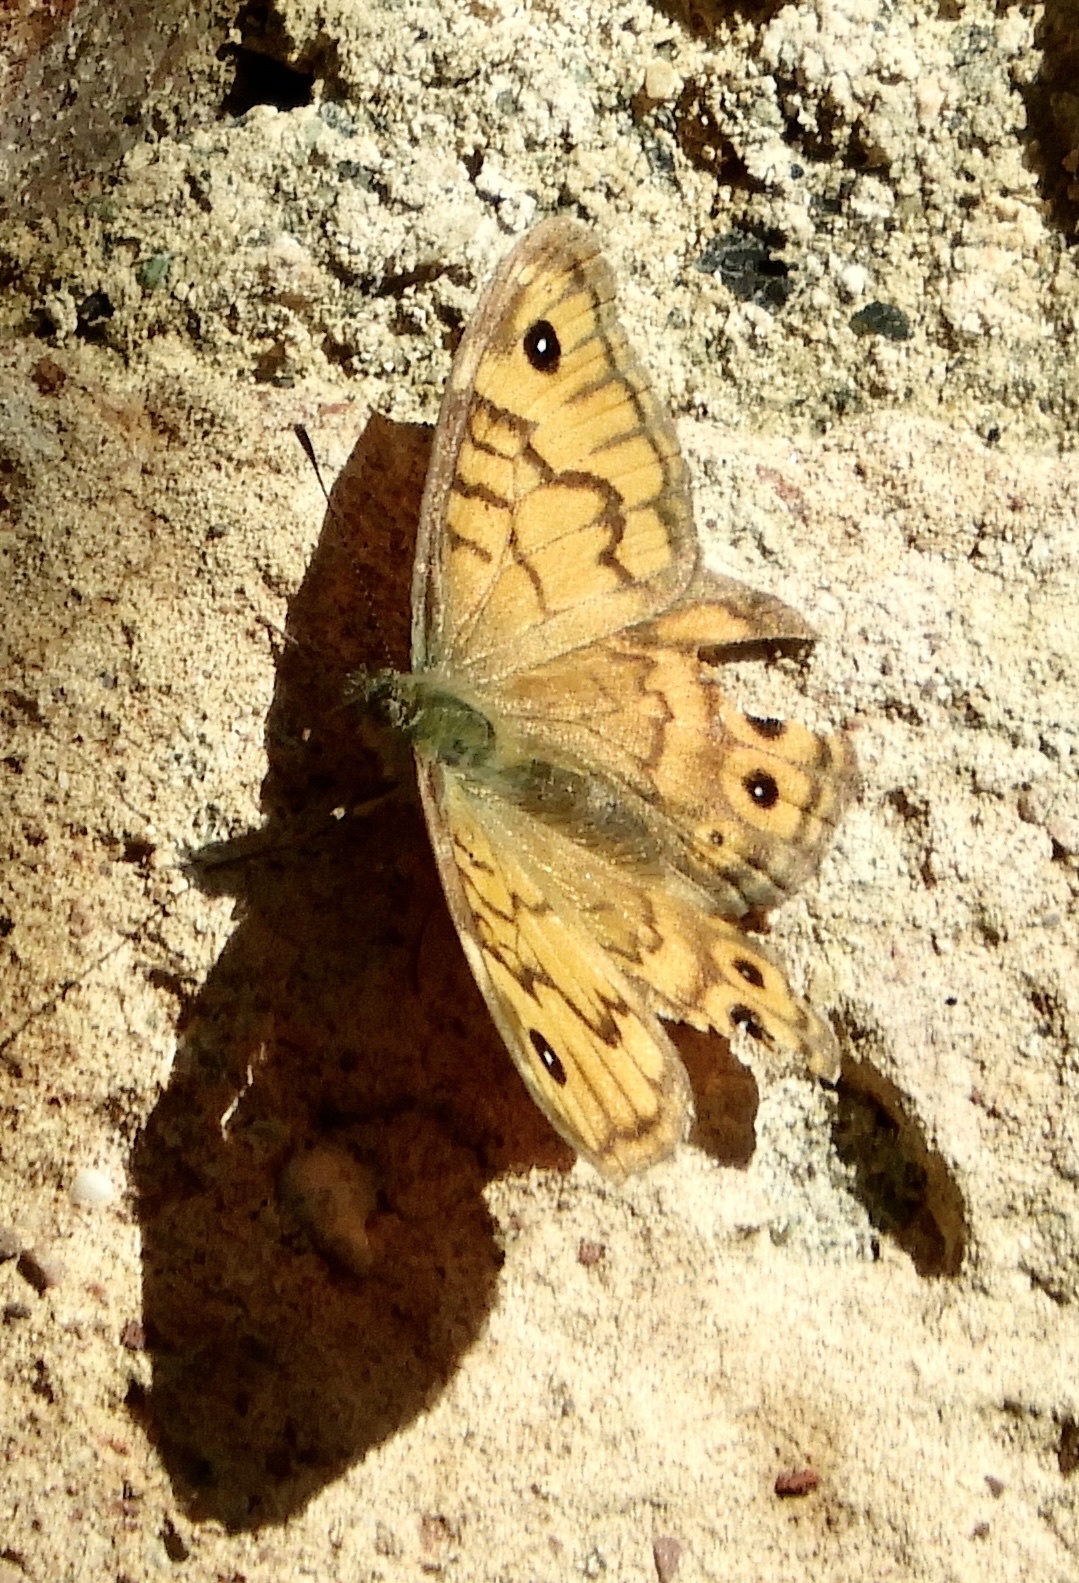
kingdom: Animalia
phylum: Arthropoda
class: Insecta
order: Lepidoptera
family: Nymphalidae
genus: Pararge
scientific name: Pararge Lasiommata megera
